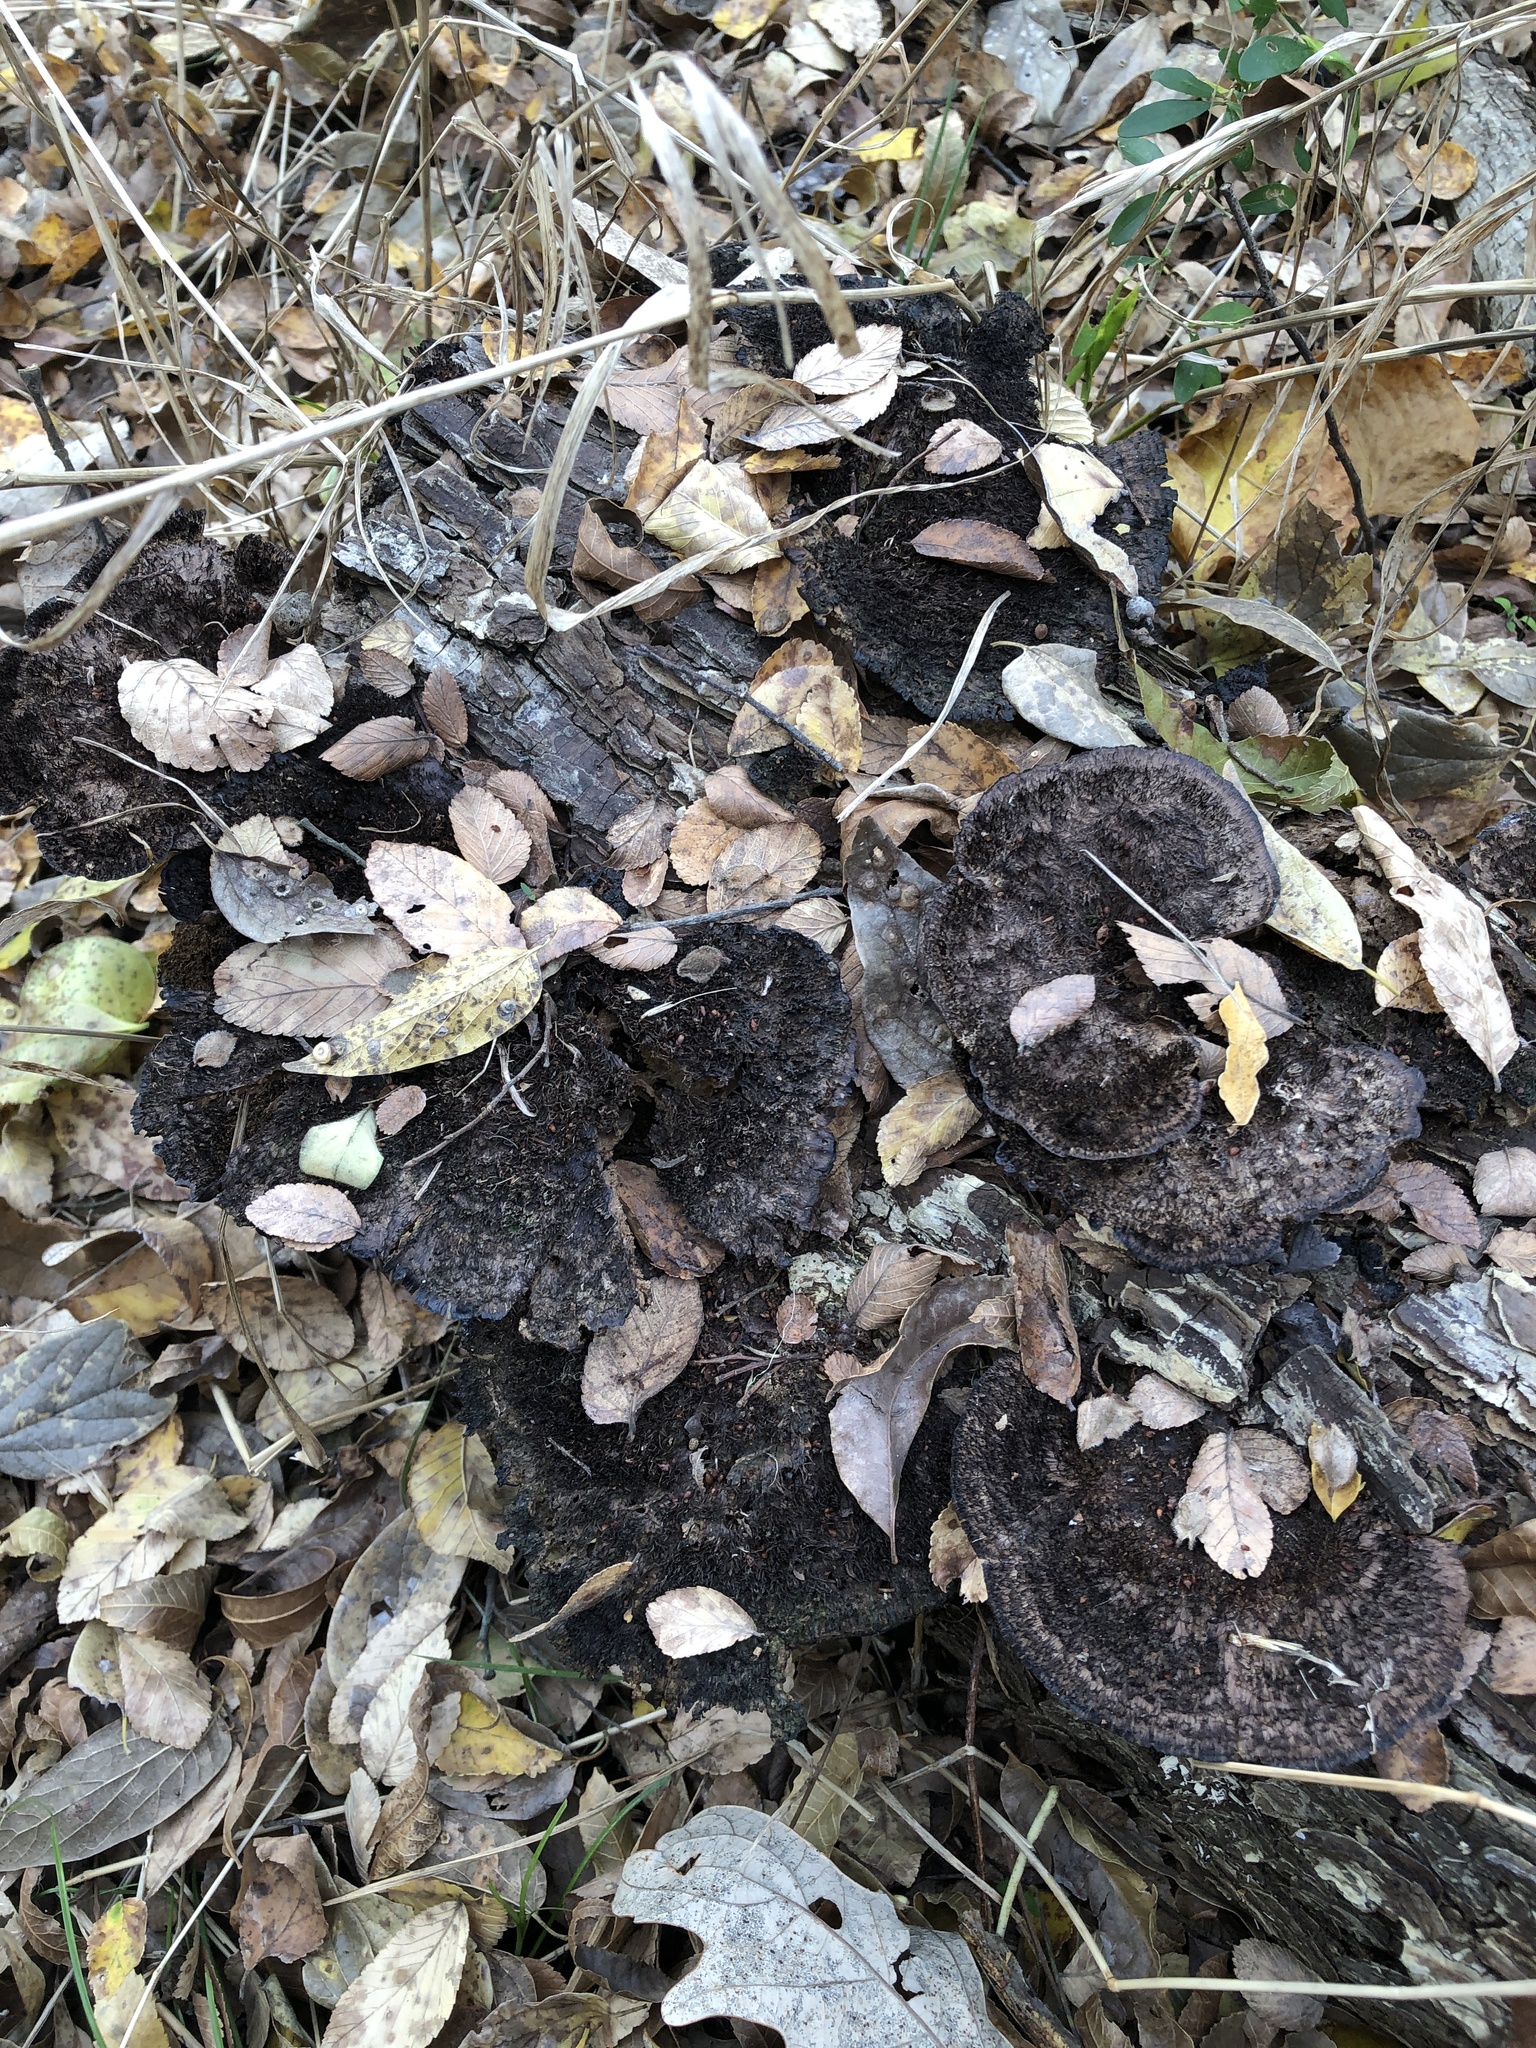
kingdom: Fungi
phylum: Basidiomycota
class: Agaricomycetes
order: Polyporales
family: Cerrenaceae
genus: Cerrena
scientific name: Cerrena hydnoides
